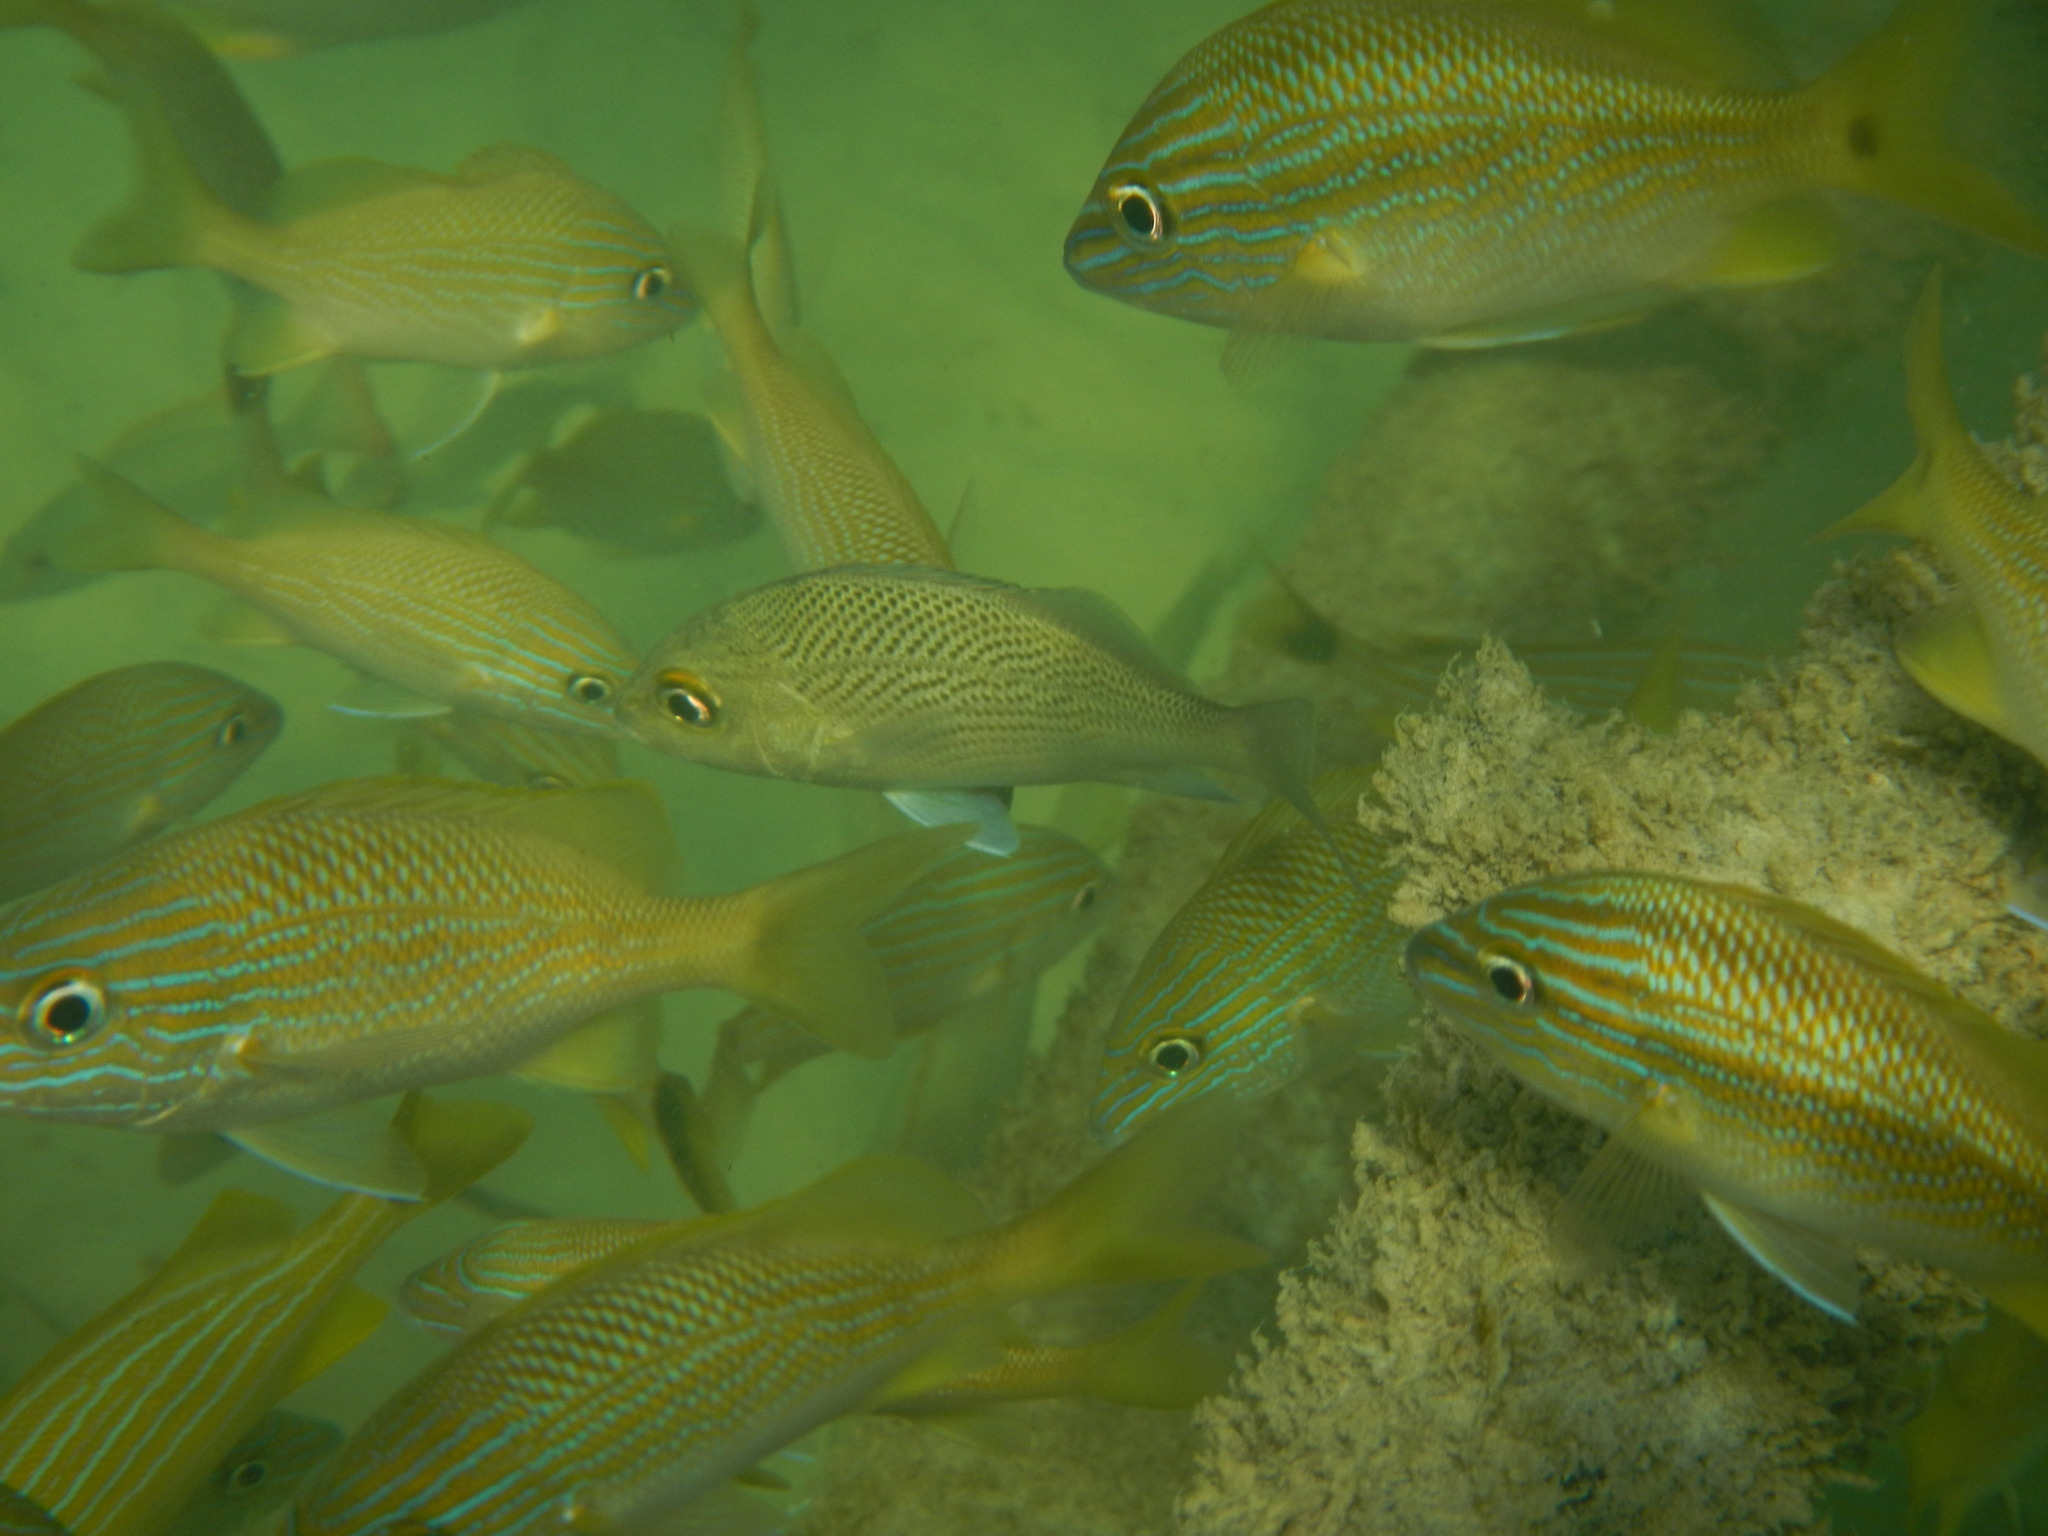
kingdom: Animalia
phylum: Chordata
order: Perciformes
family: Haemulidae
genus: Haemulon
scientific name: Haemulon parra
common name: Sailor's choice
